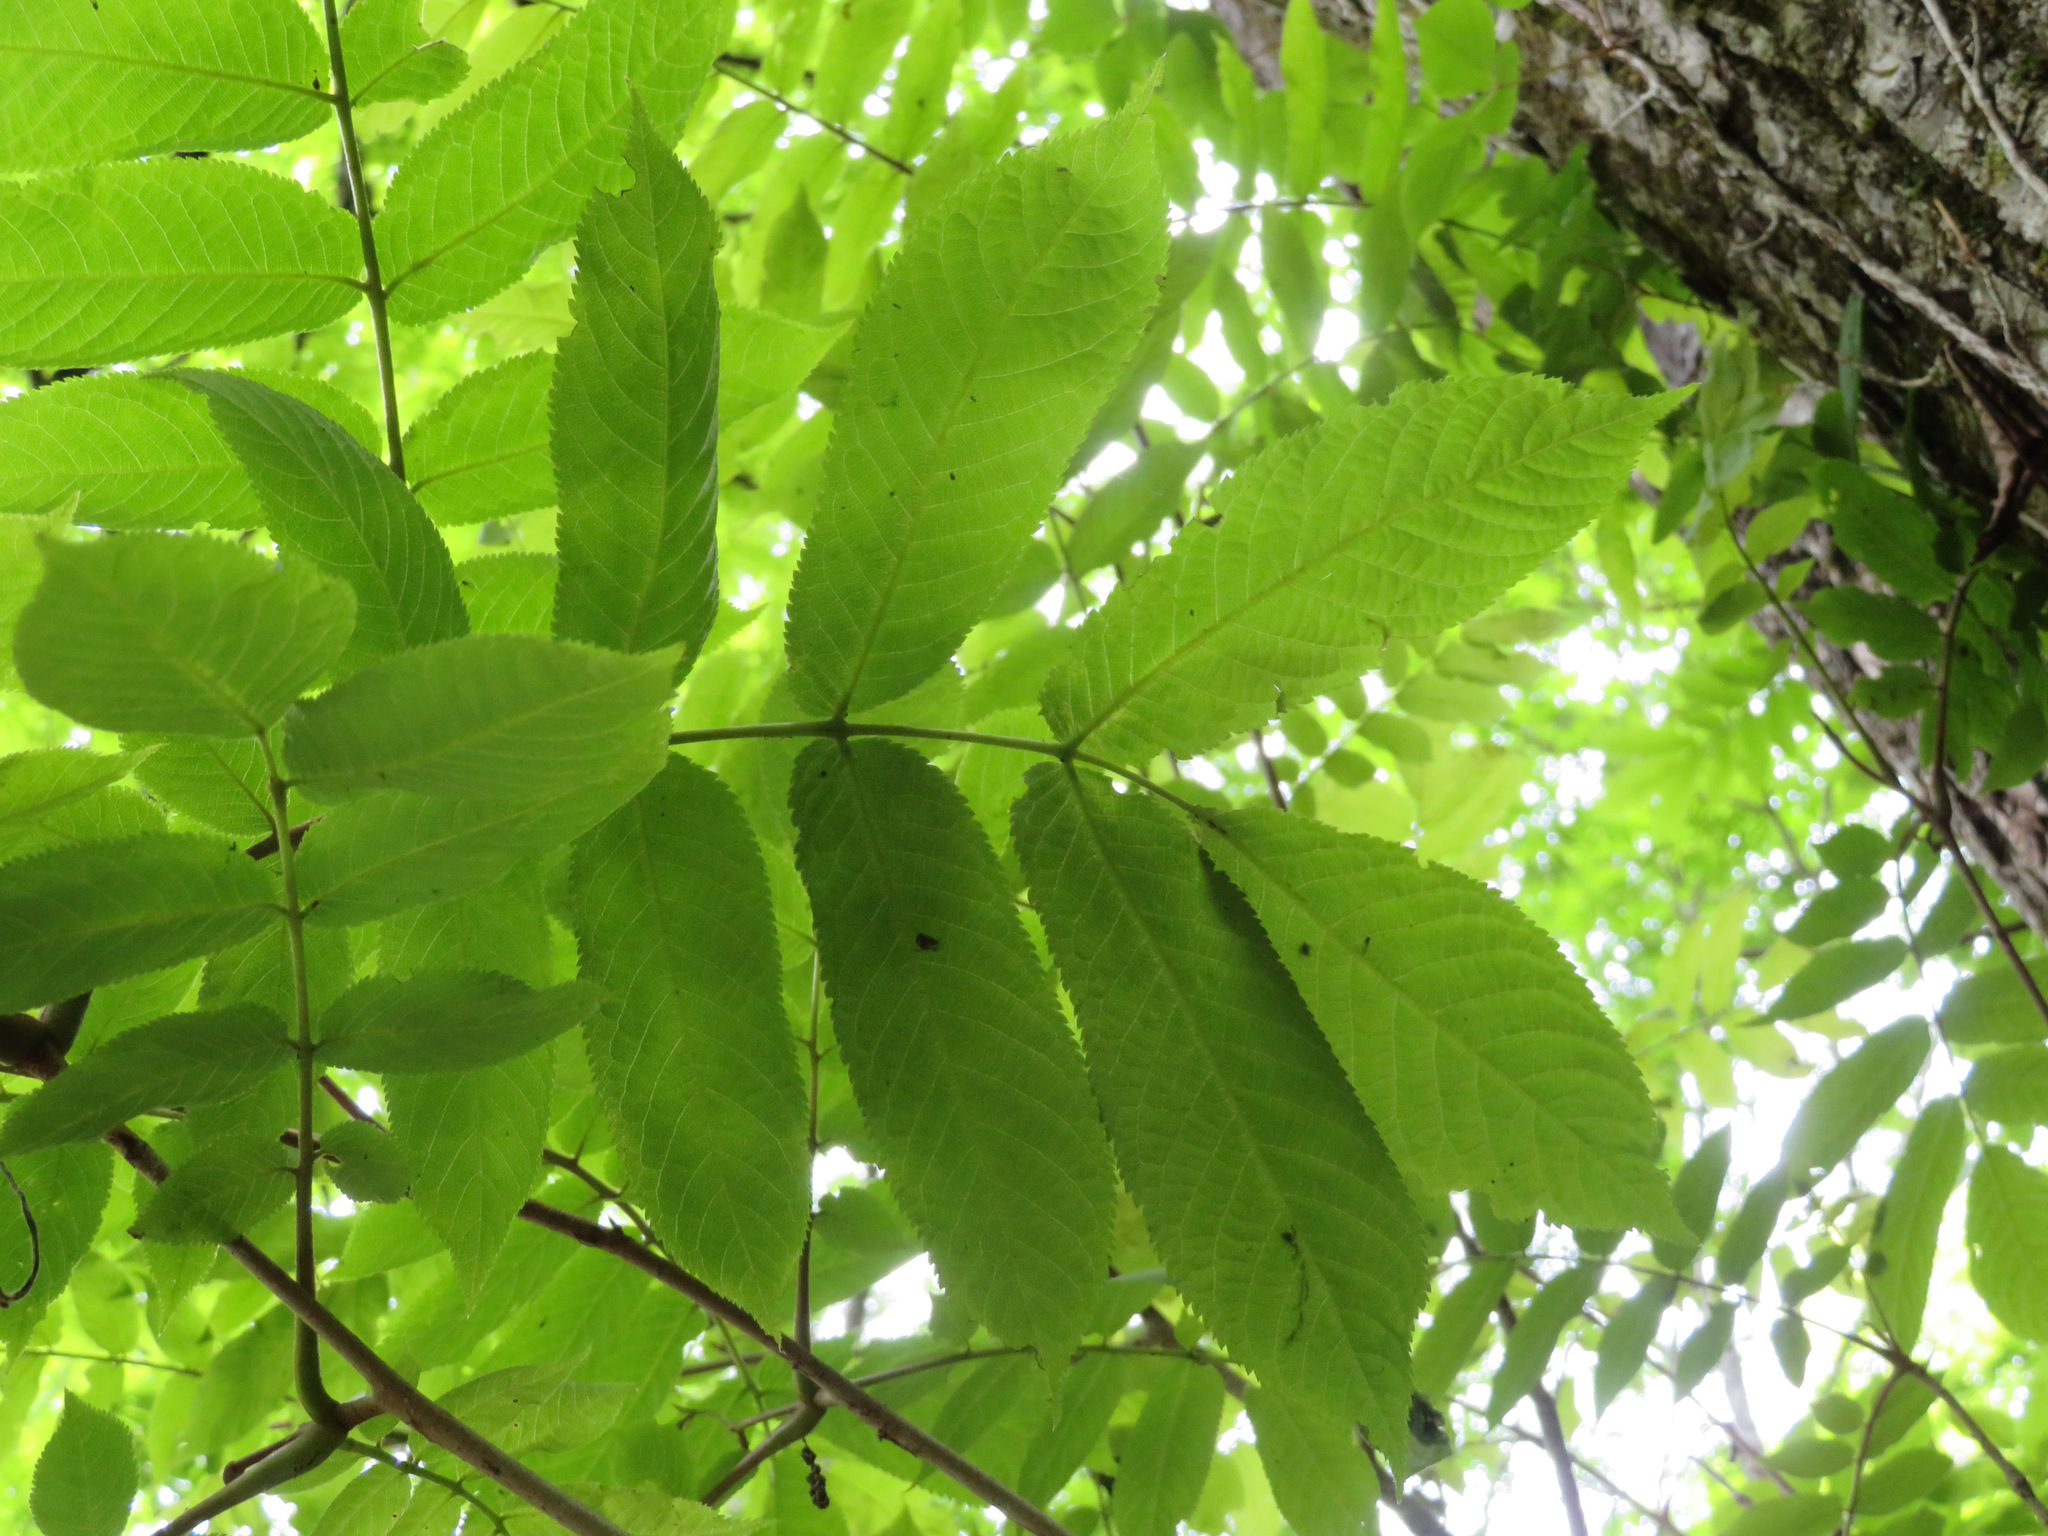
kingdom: Plantae
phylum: Tracheophyta
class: Magnoliopsida
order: Lamiales
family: Oleaceae
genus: Fraxinus
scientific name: Fraxinus platypoda
